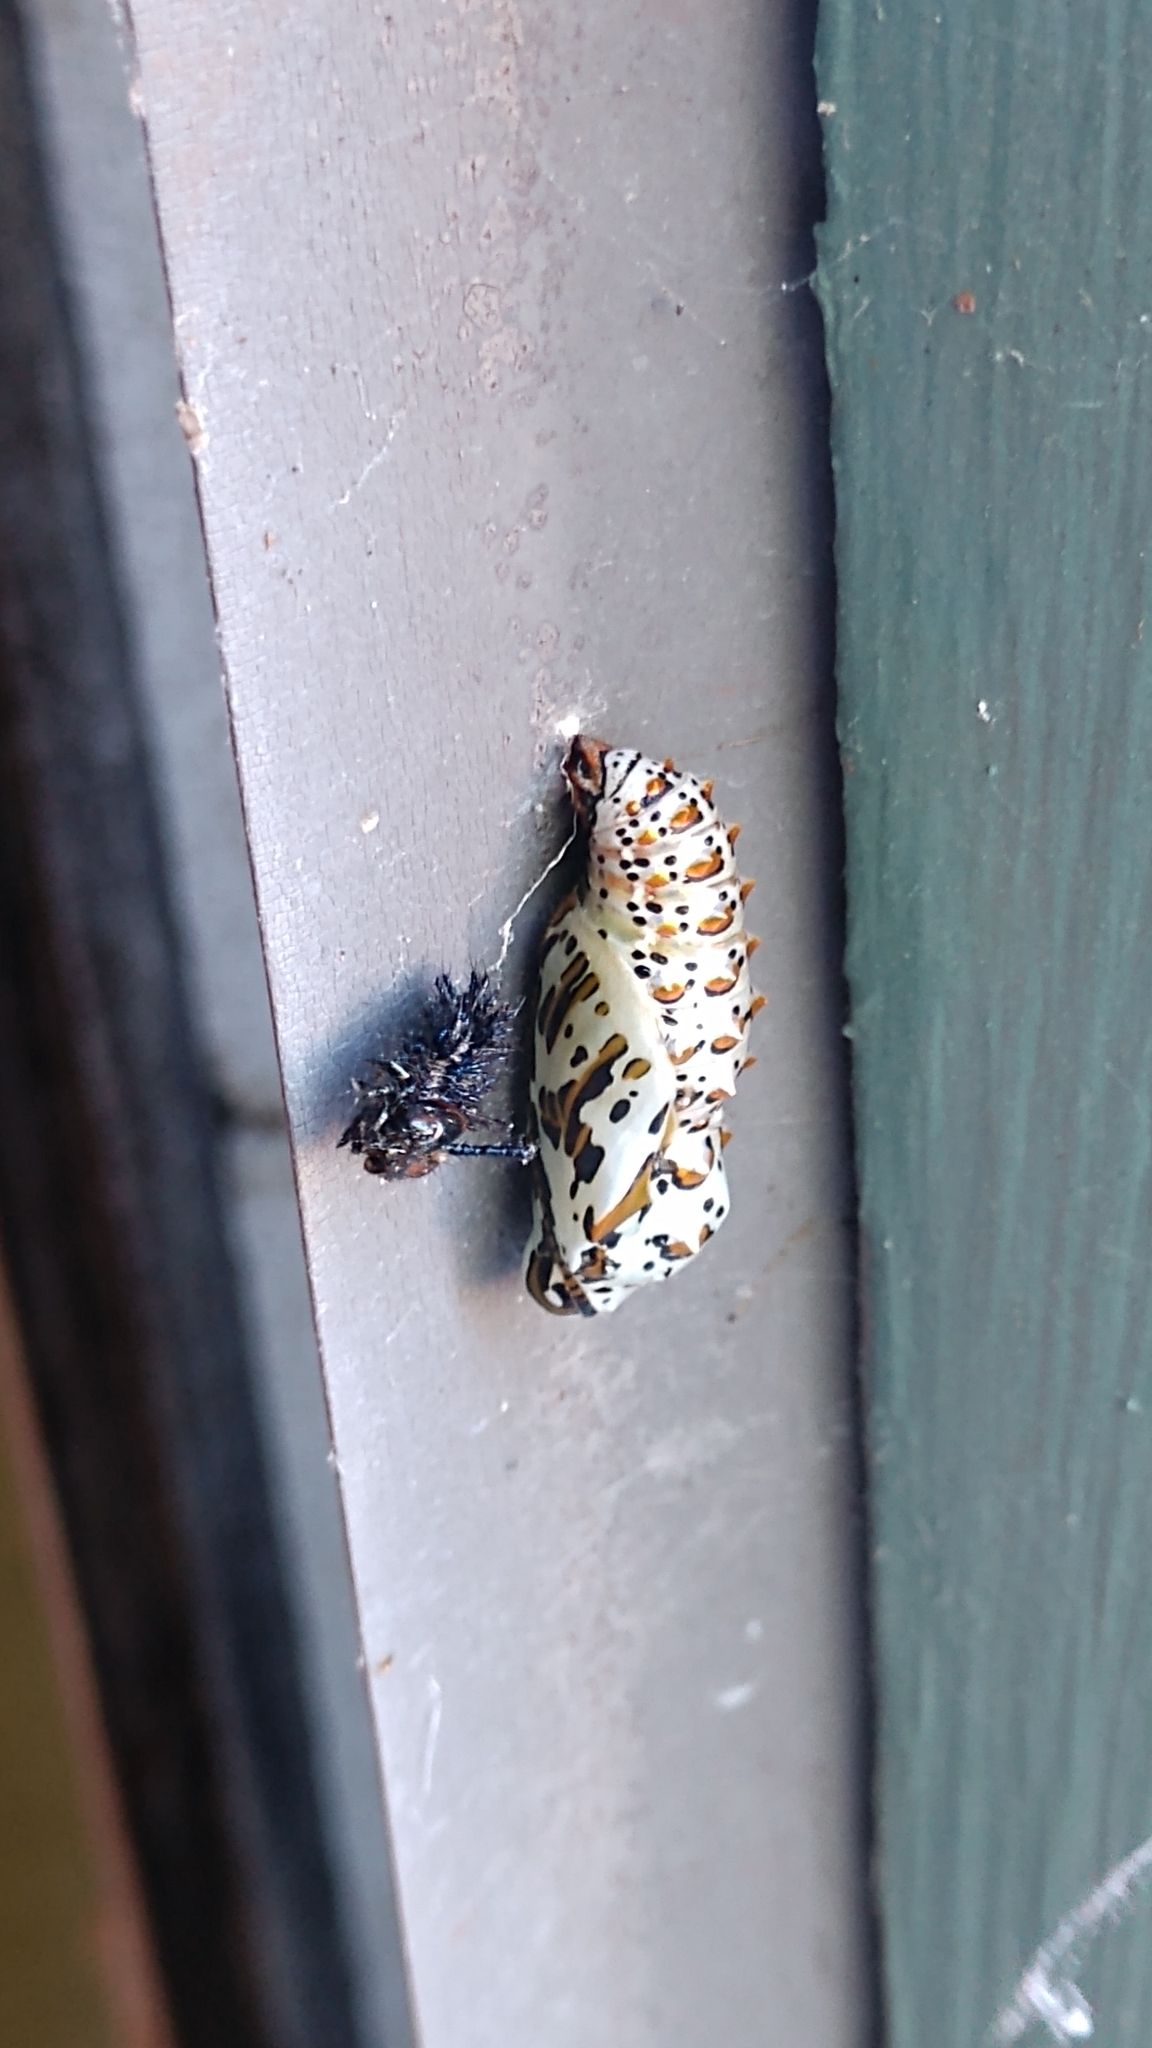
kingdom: Animalia
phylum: Arthropoda
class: Insecta
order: Lepidoptera
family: Nymphalidae
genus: Euptoieta
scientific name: Euptoieta claudia
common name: Variegated fritillary
